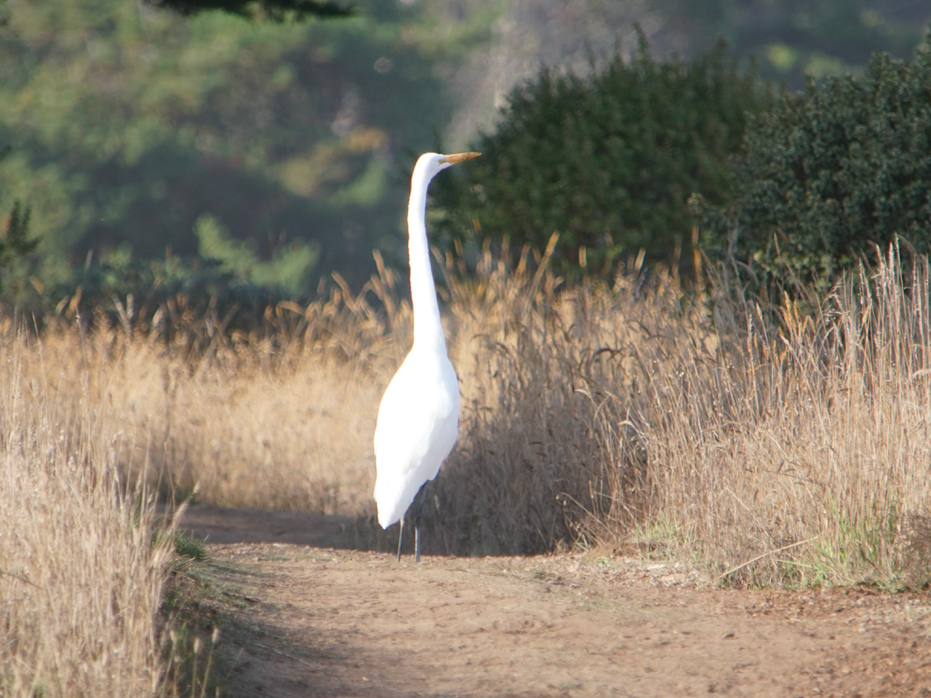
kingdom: Animalia
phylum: Chordata
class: Aves
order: Pelecaniformes
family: Ardeidae
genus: Ardea
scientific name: Ardea alba
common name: Great egret
